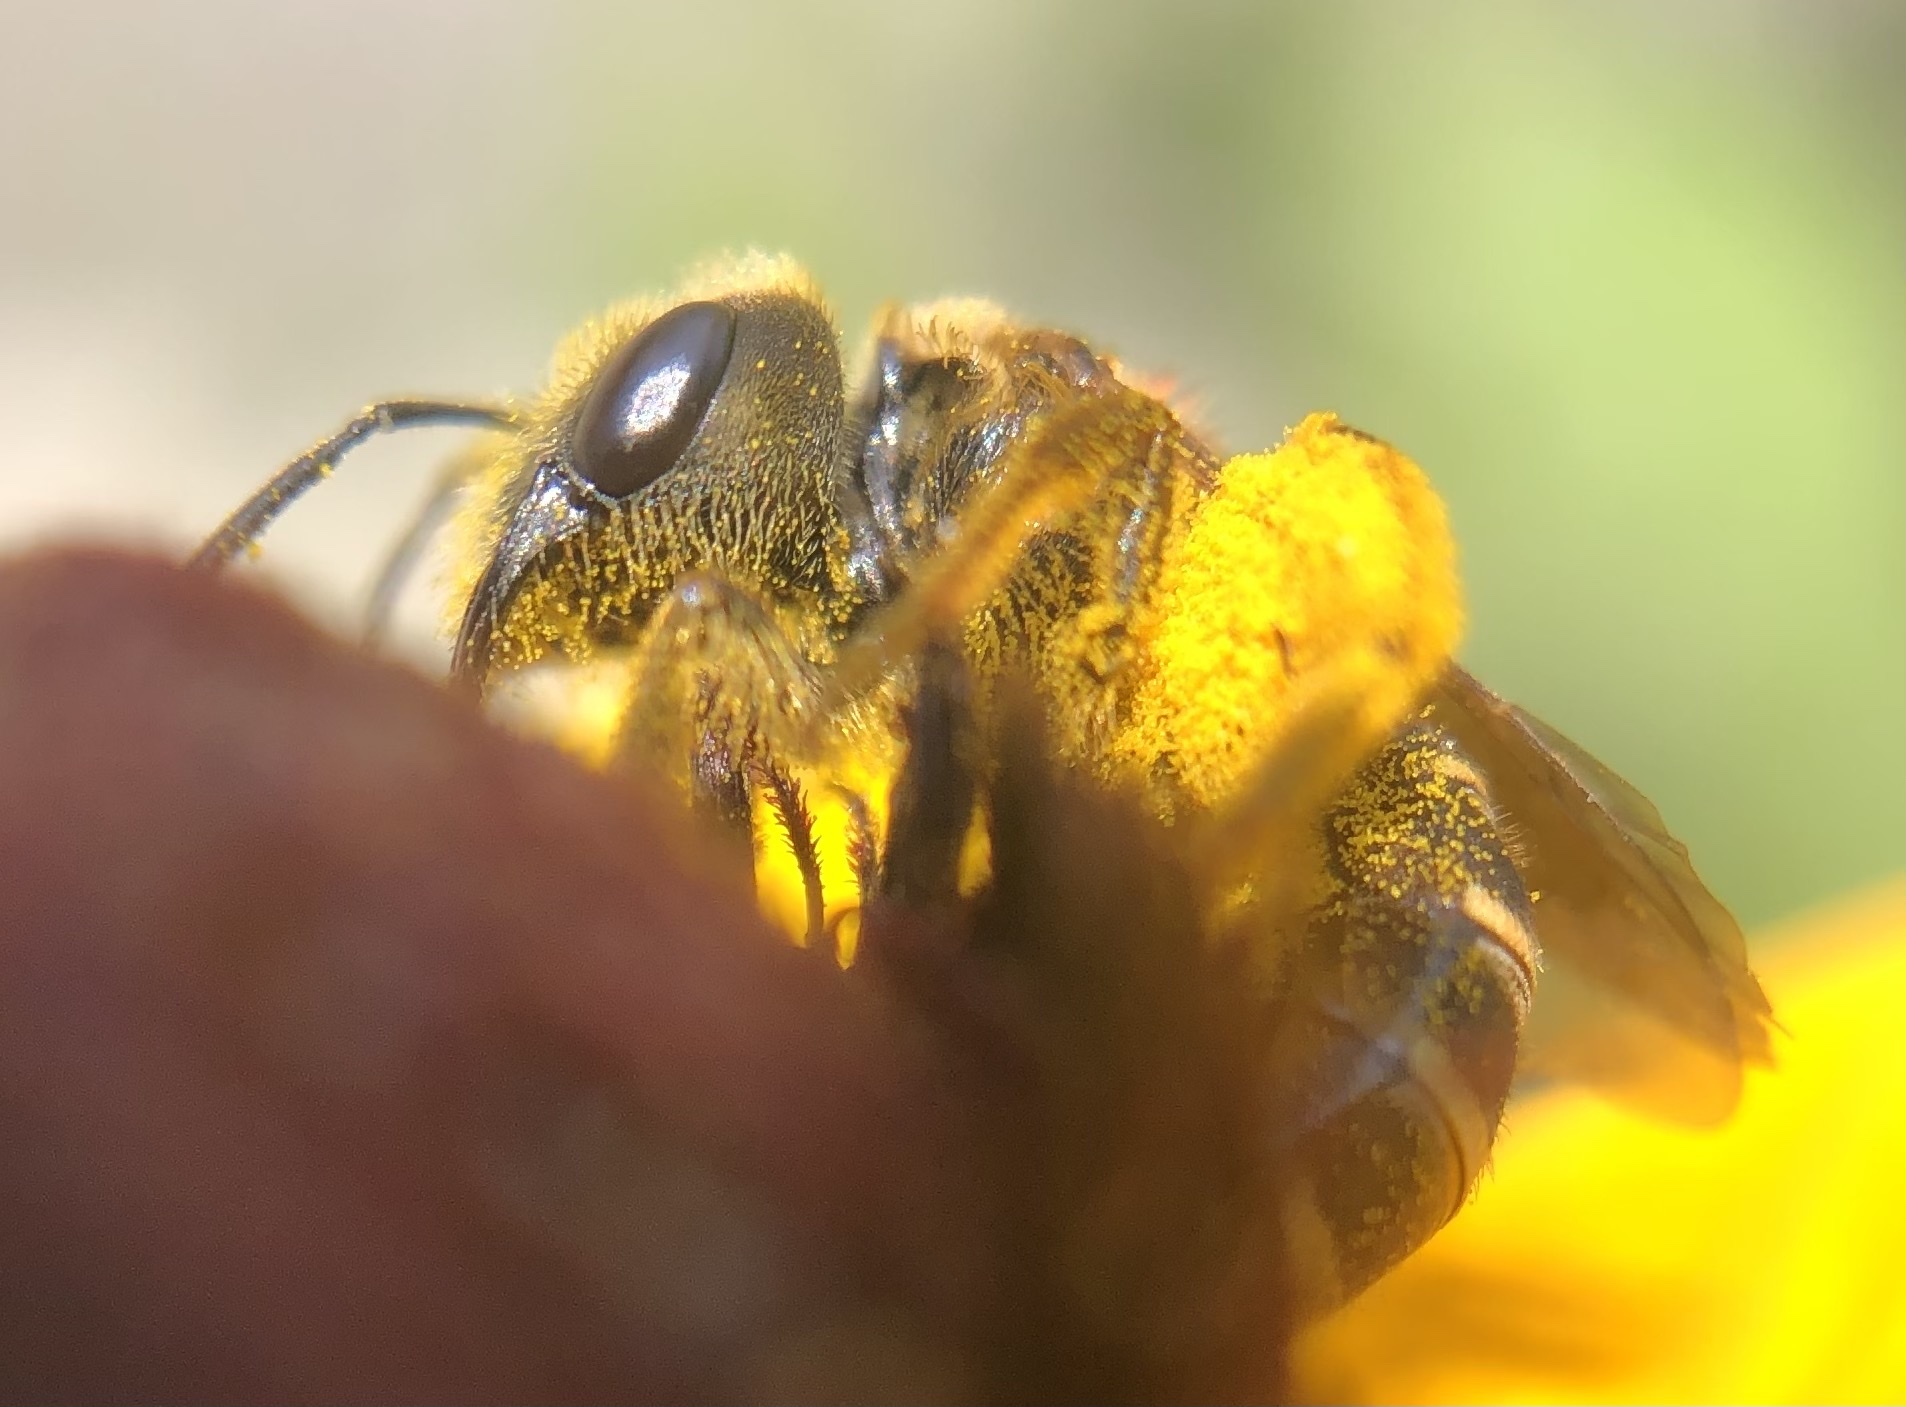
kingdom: Animalia
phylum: Arthropoda
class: Insecta
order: Hymenoptera
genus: Odontalictus
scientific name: Odontalictus
